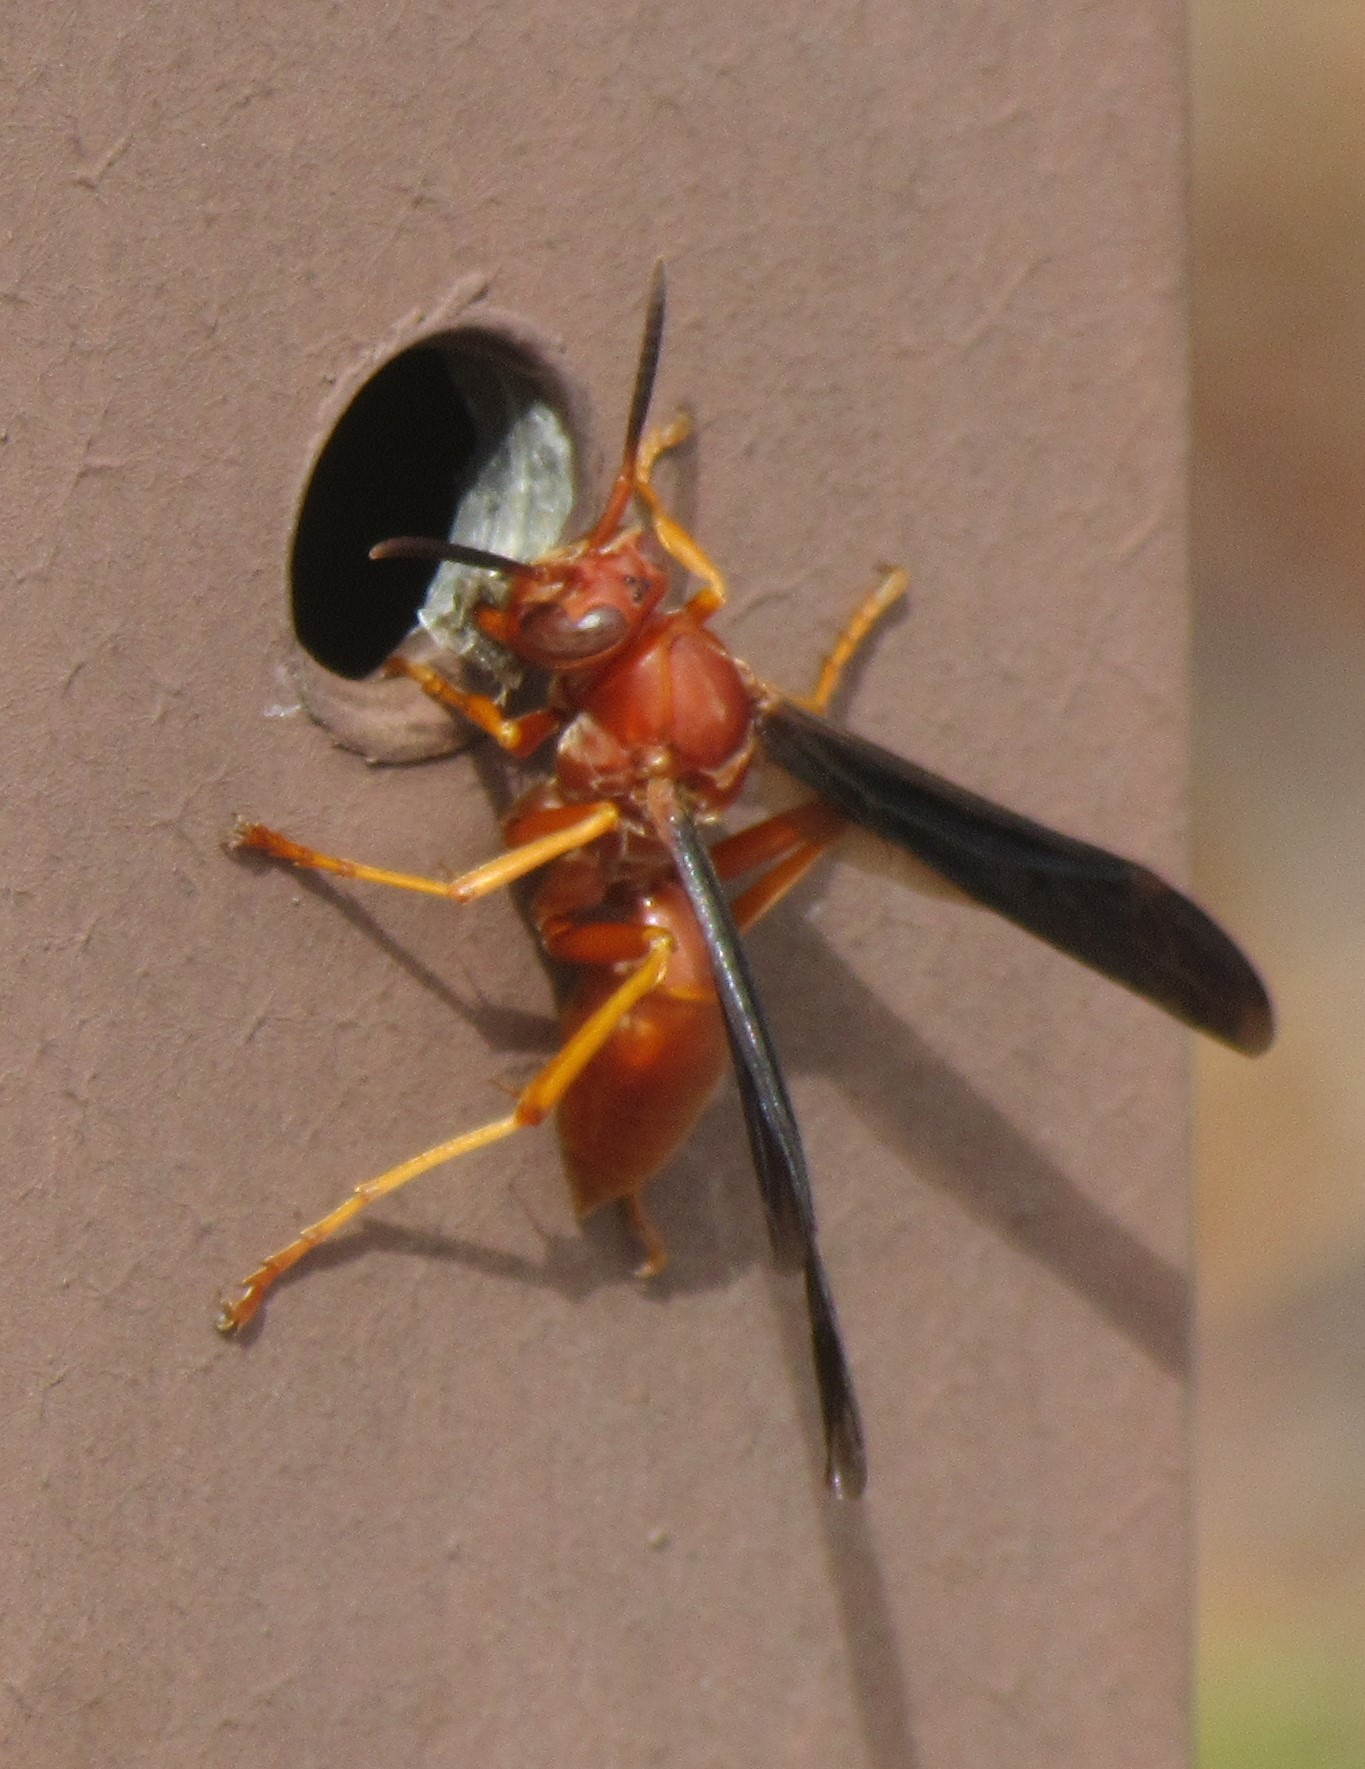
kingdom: Animalia
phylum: Arthropoda
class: Insecta
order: Hymenoptera
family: Eumenidae
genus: Polistes
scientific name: Polistes carolina
